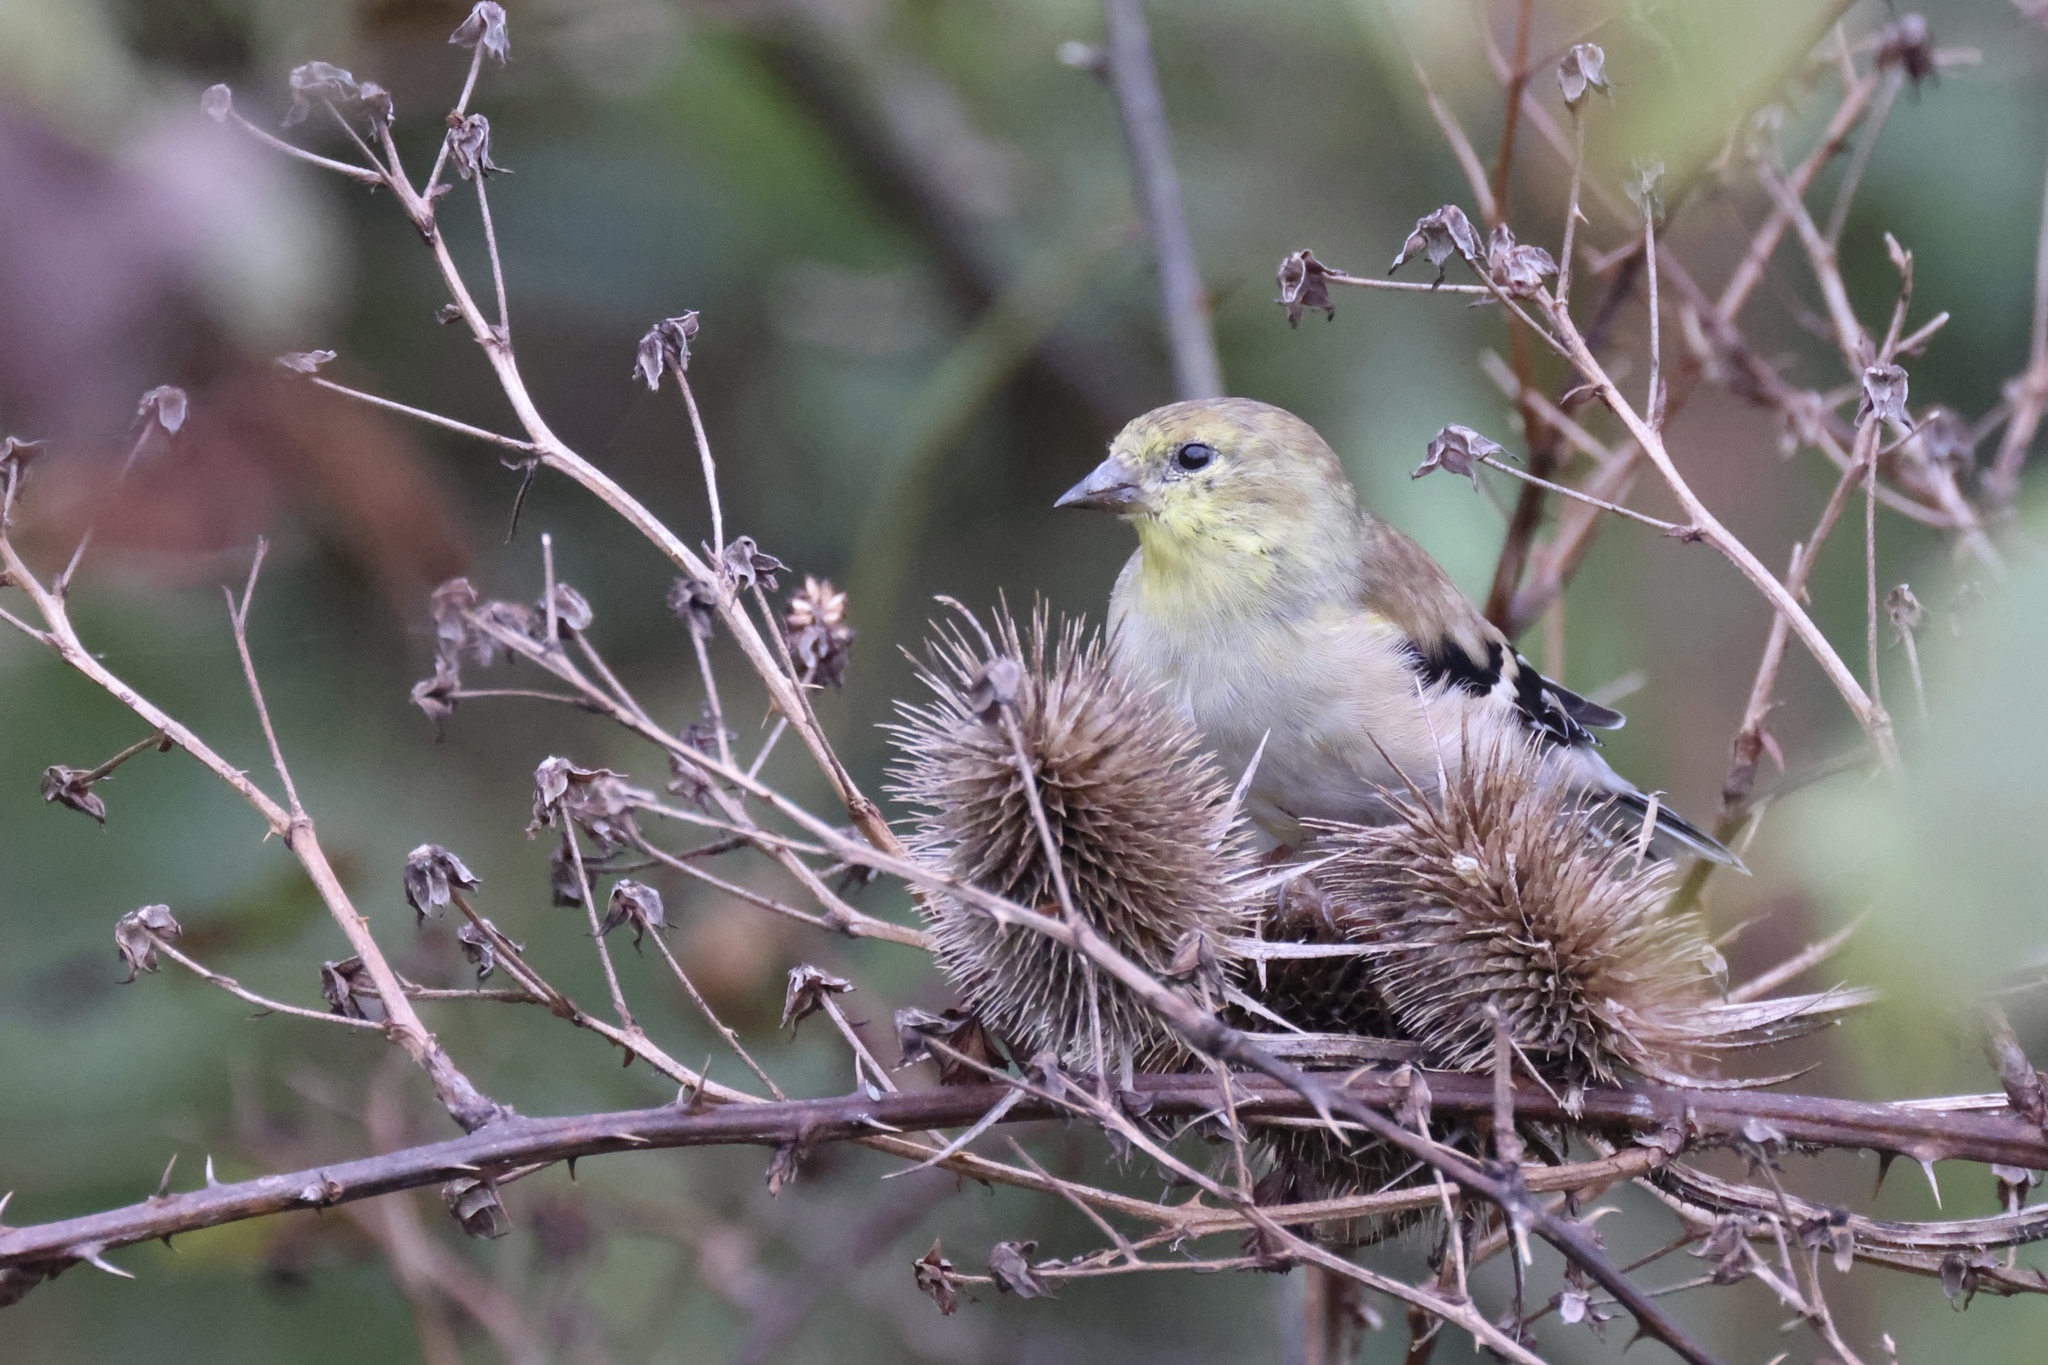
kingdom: Animalia
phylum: Chordata
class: Aves
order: Passeriformes
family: Fringillidae
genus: Spinus
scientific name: Spinus tristis
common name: American goldfinch
